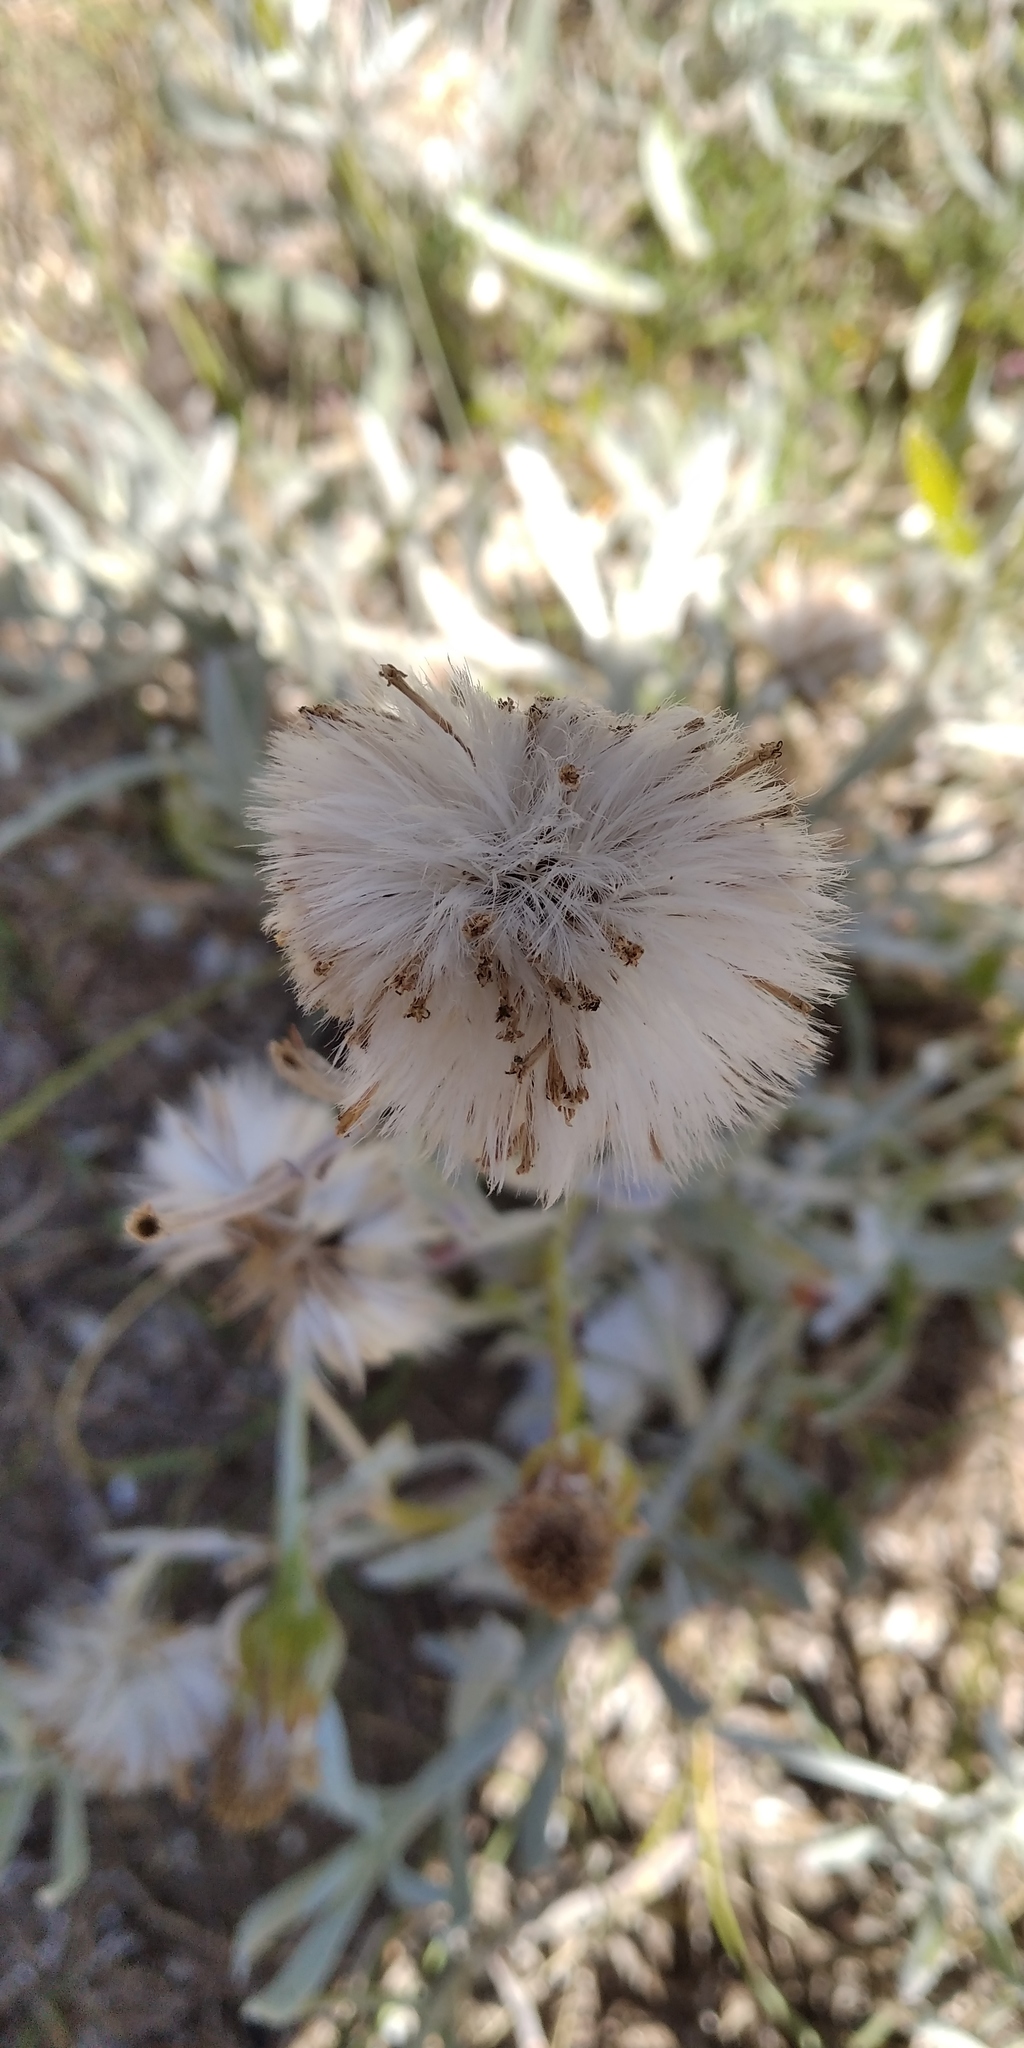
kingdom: Plantae
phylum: Tracheophyta
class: Magnoliopsida
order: Asterales
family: Asteraceae
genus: Senecio
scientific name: Senecio crassiflorus
